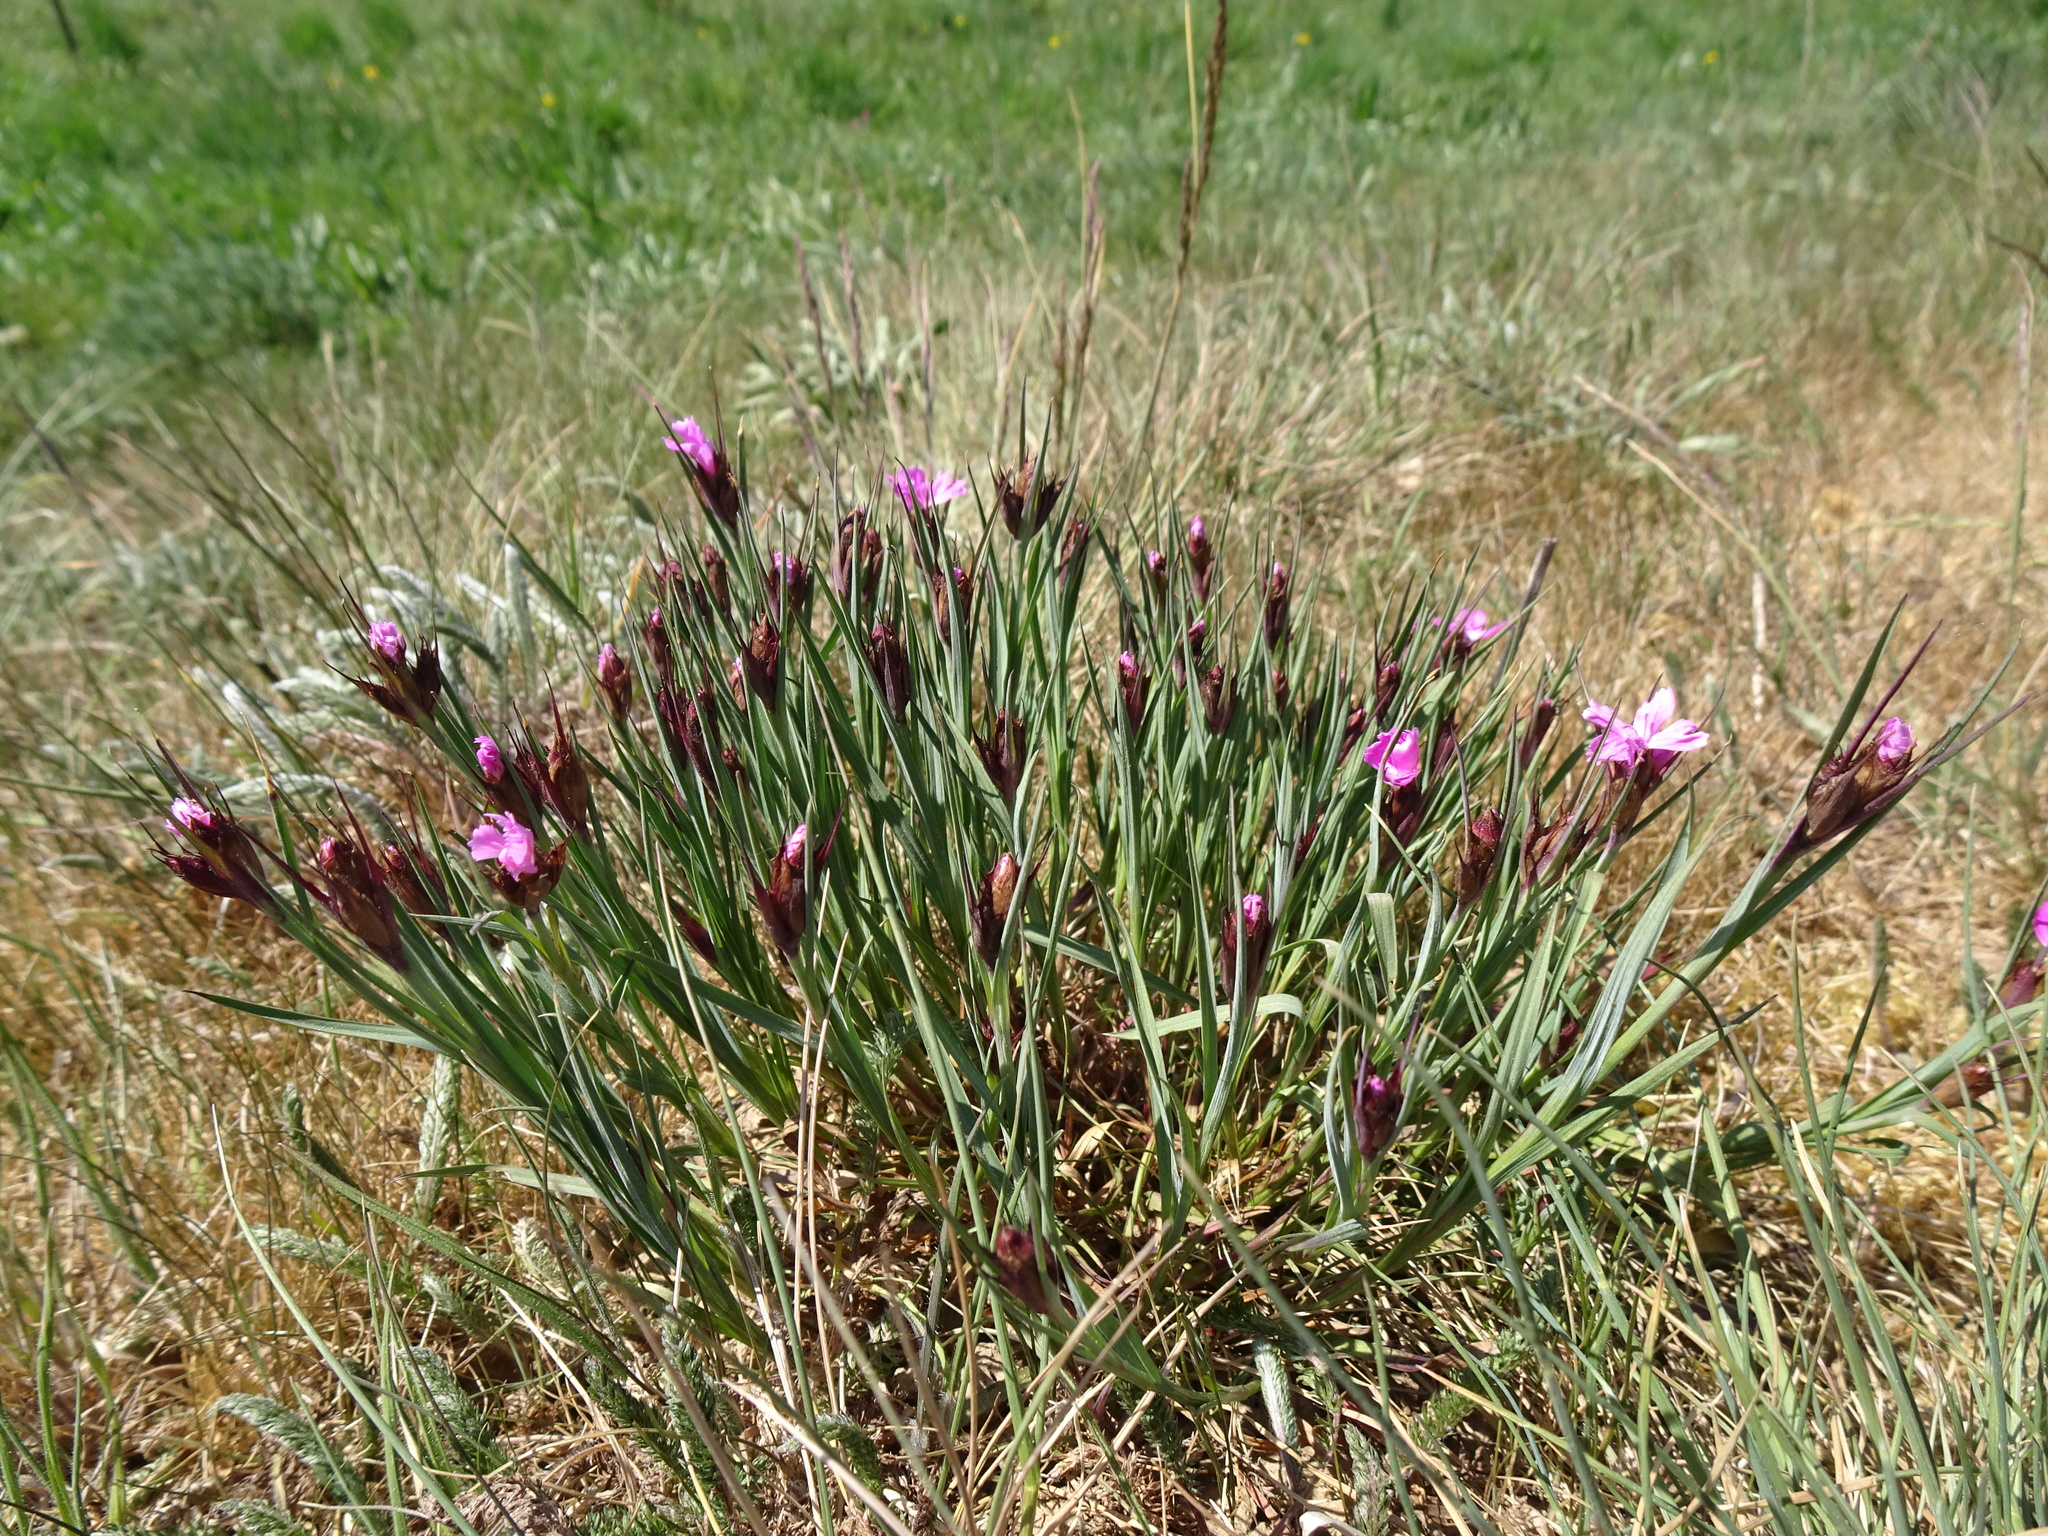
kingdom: Plantae
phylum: Tracheophyta
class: Magnoliopsida
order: Caryophyllales
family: Caryophyllaceae
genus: Dianthus
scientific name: Dianthus carthusianorum
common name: Carthusian pink
